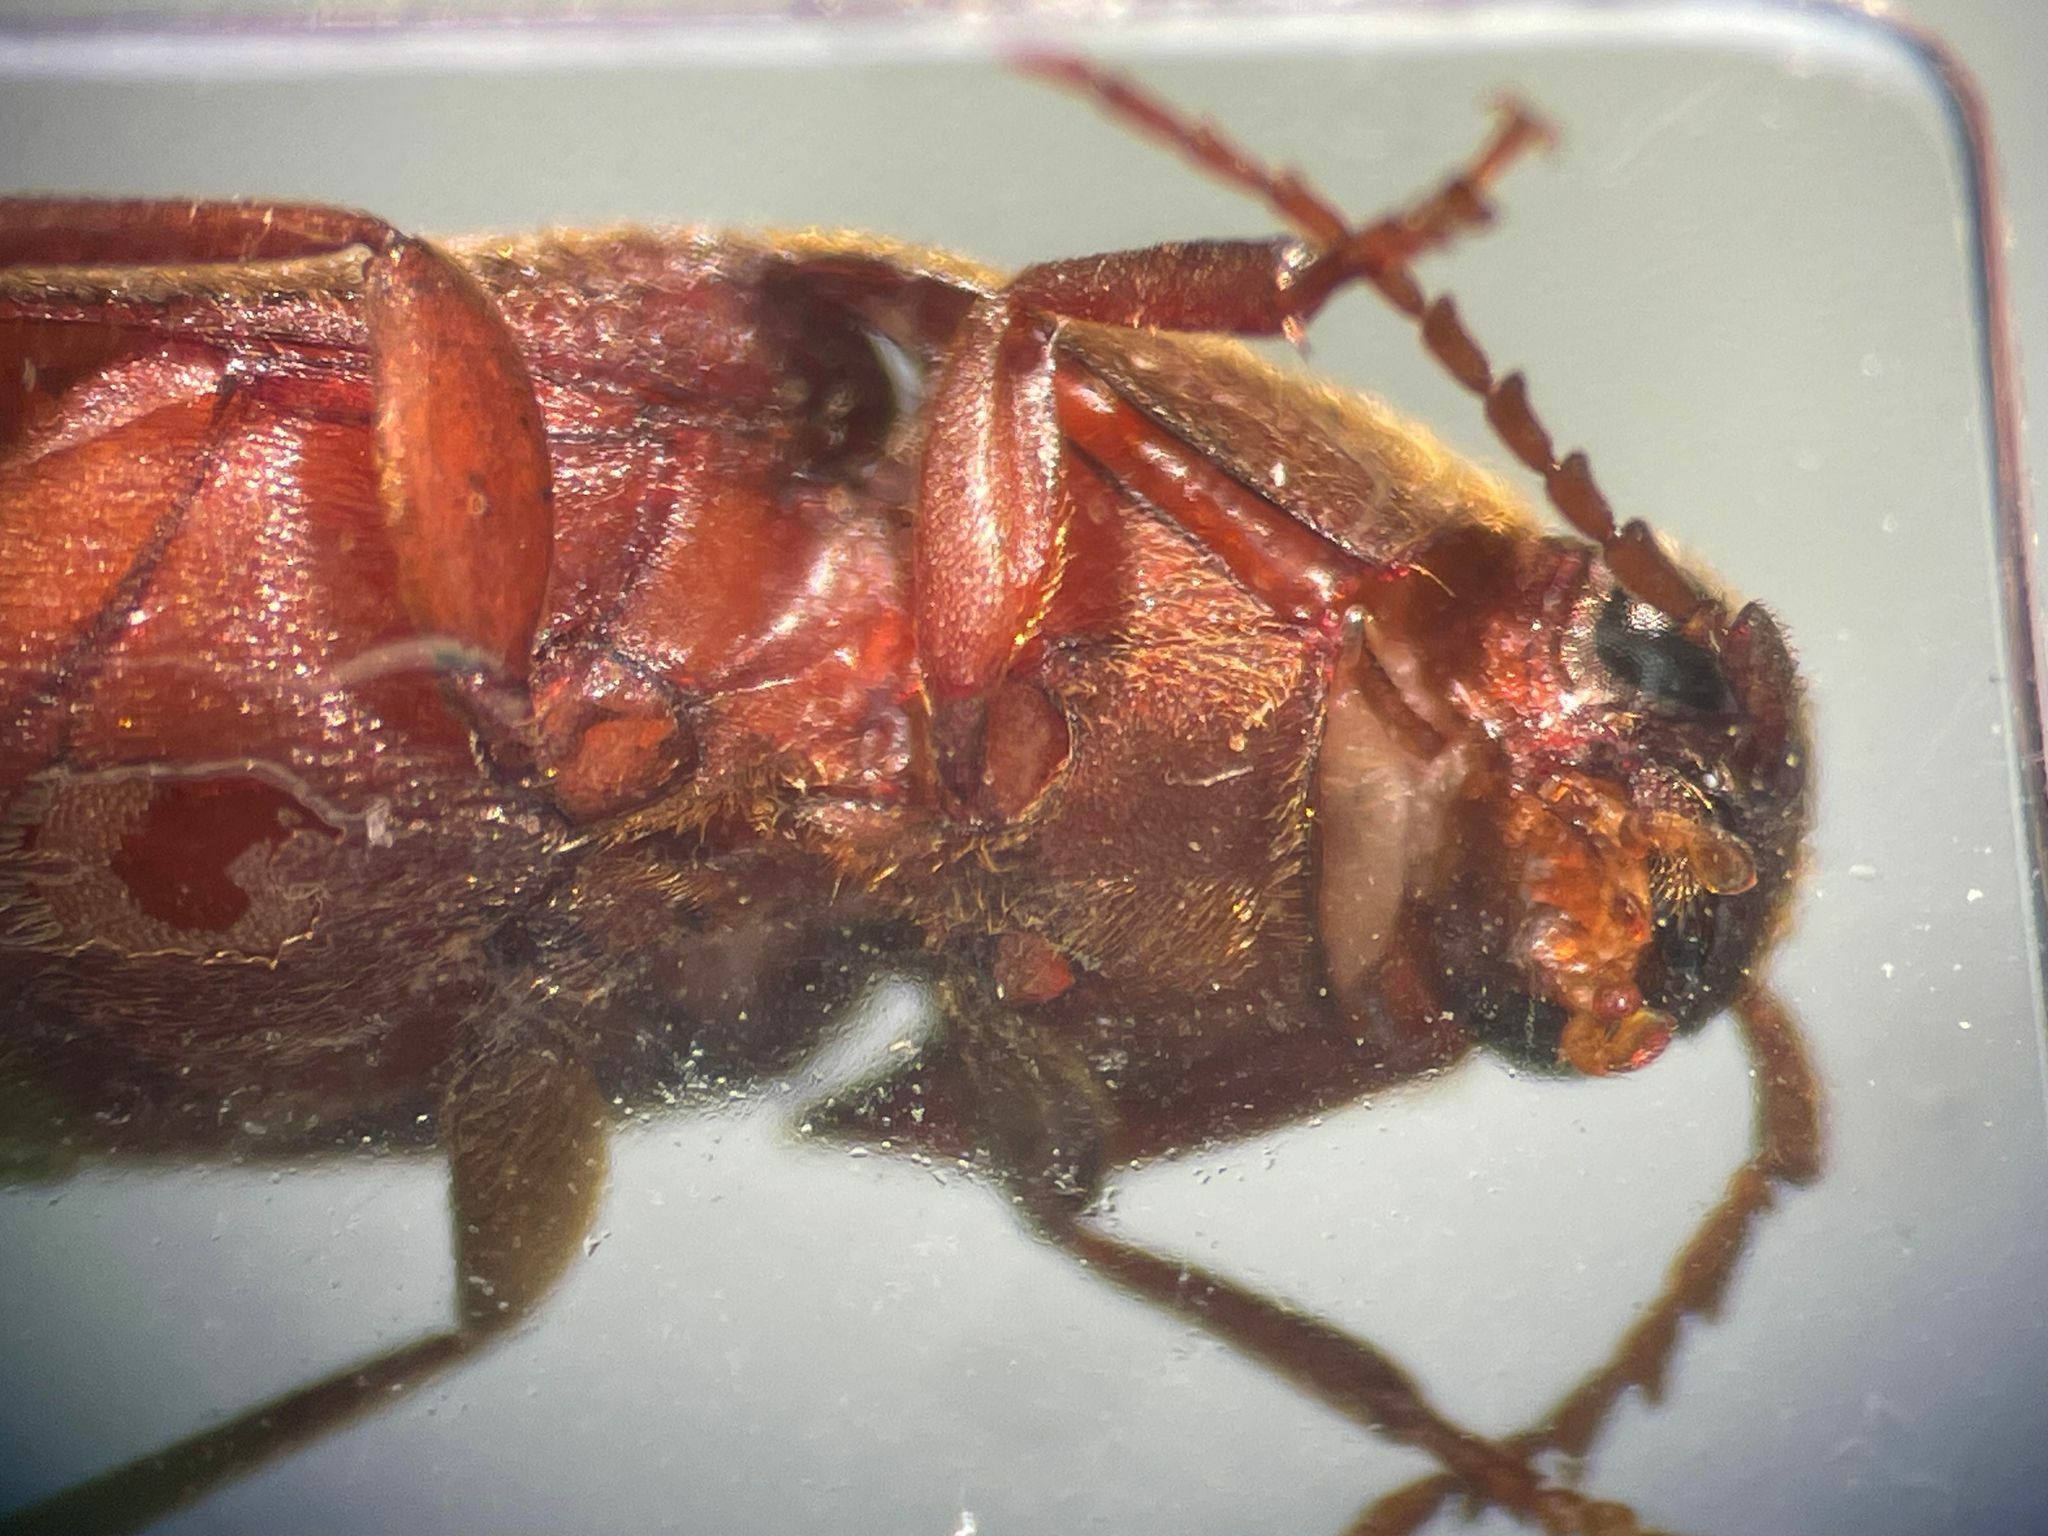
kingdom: Animalia
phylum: Arthropoda
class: Insecta
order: Coleoptera
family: Eucnemidae
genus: Onichodon
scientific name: Onichodon orchesides
